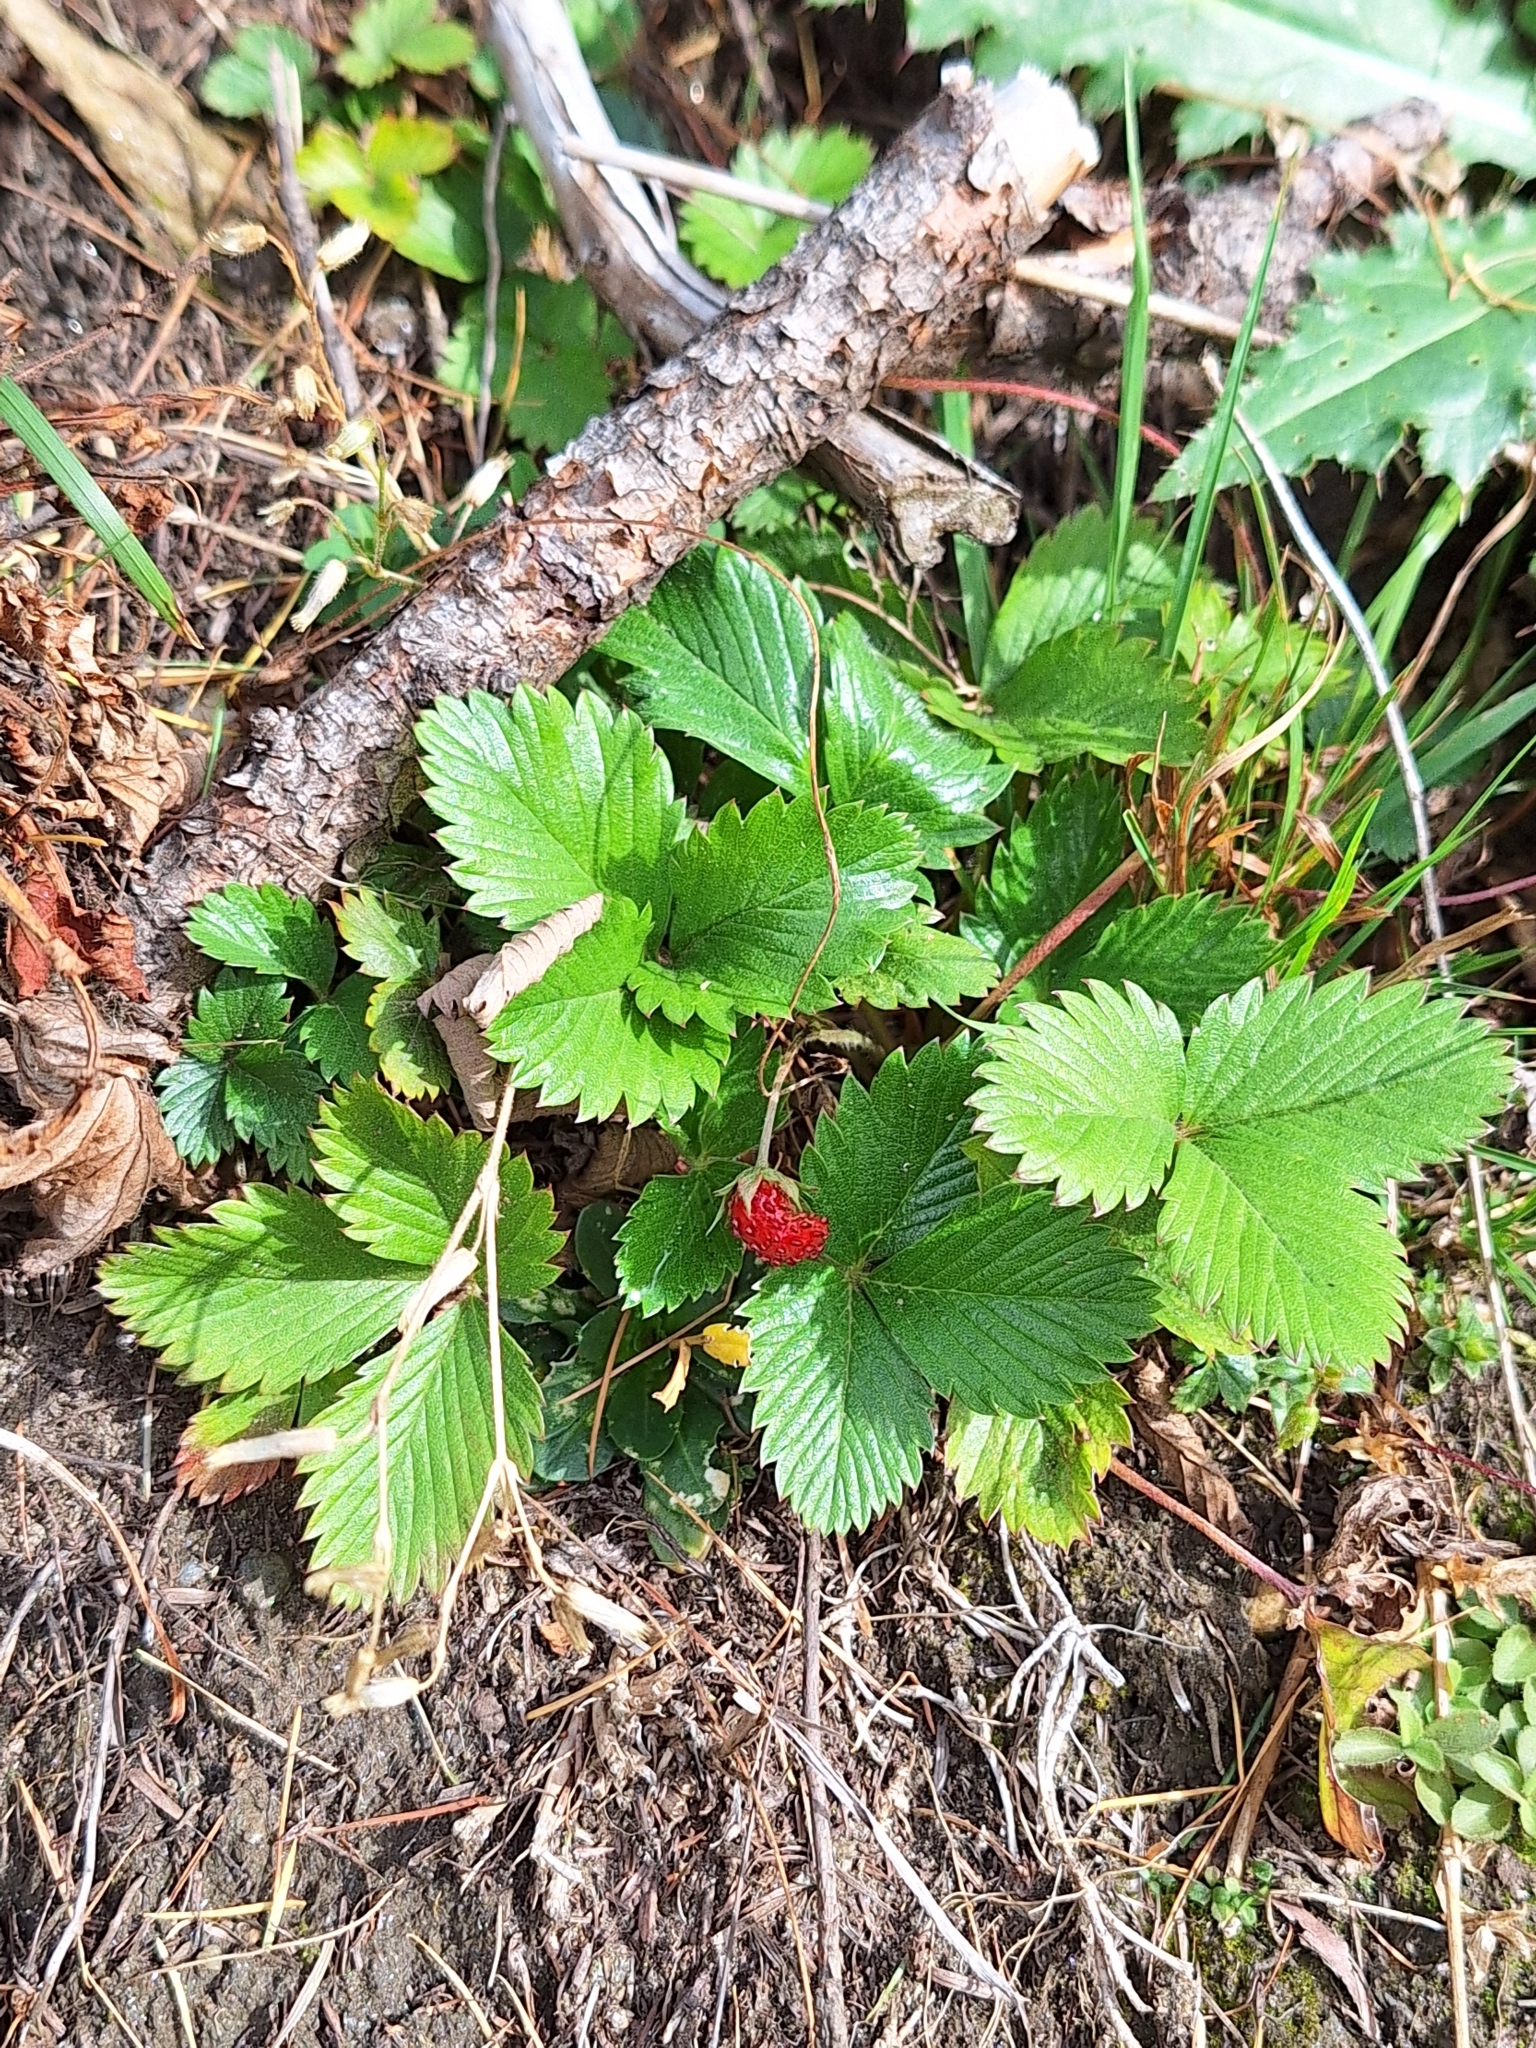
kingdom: Plantae
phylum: Tracheophyta
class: Magnoliopsida
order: Rosales
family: Rosaceae
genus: Fragaria
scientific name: Fragaria vesca
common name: Wild strawberry
